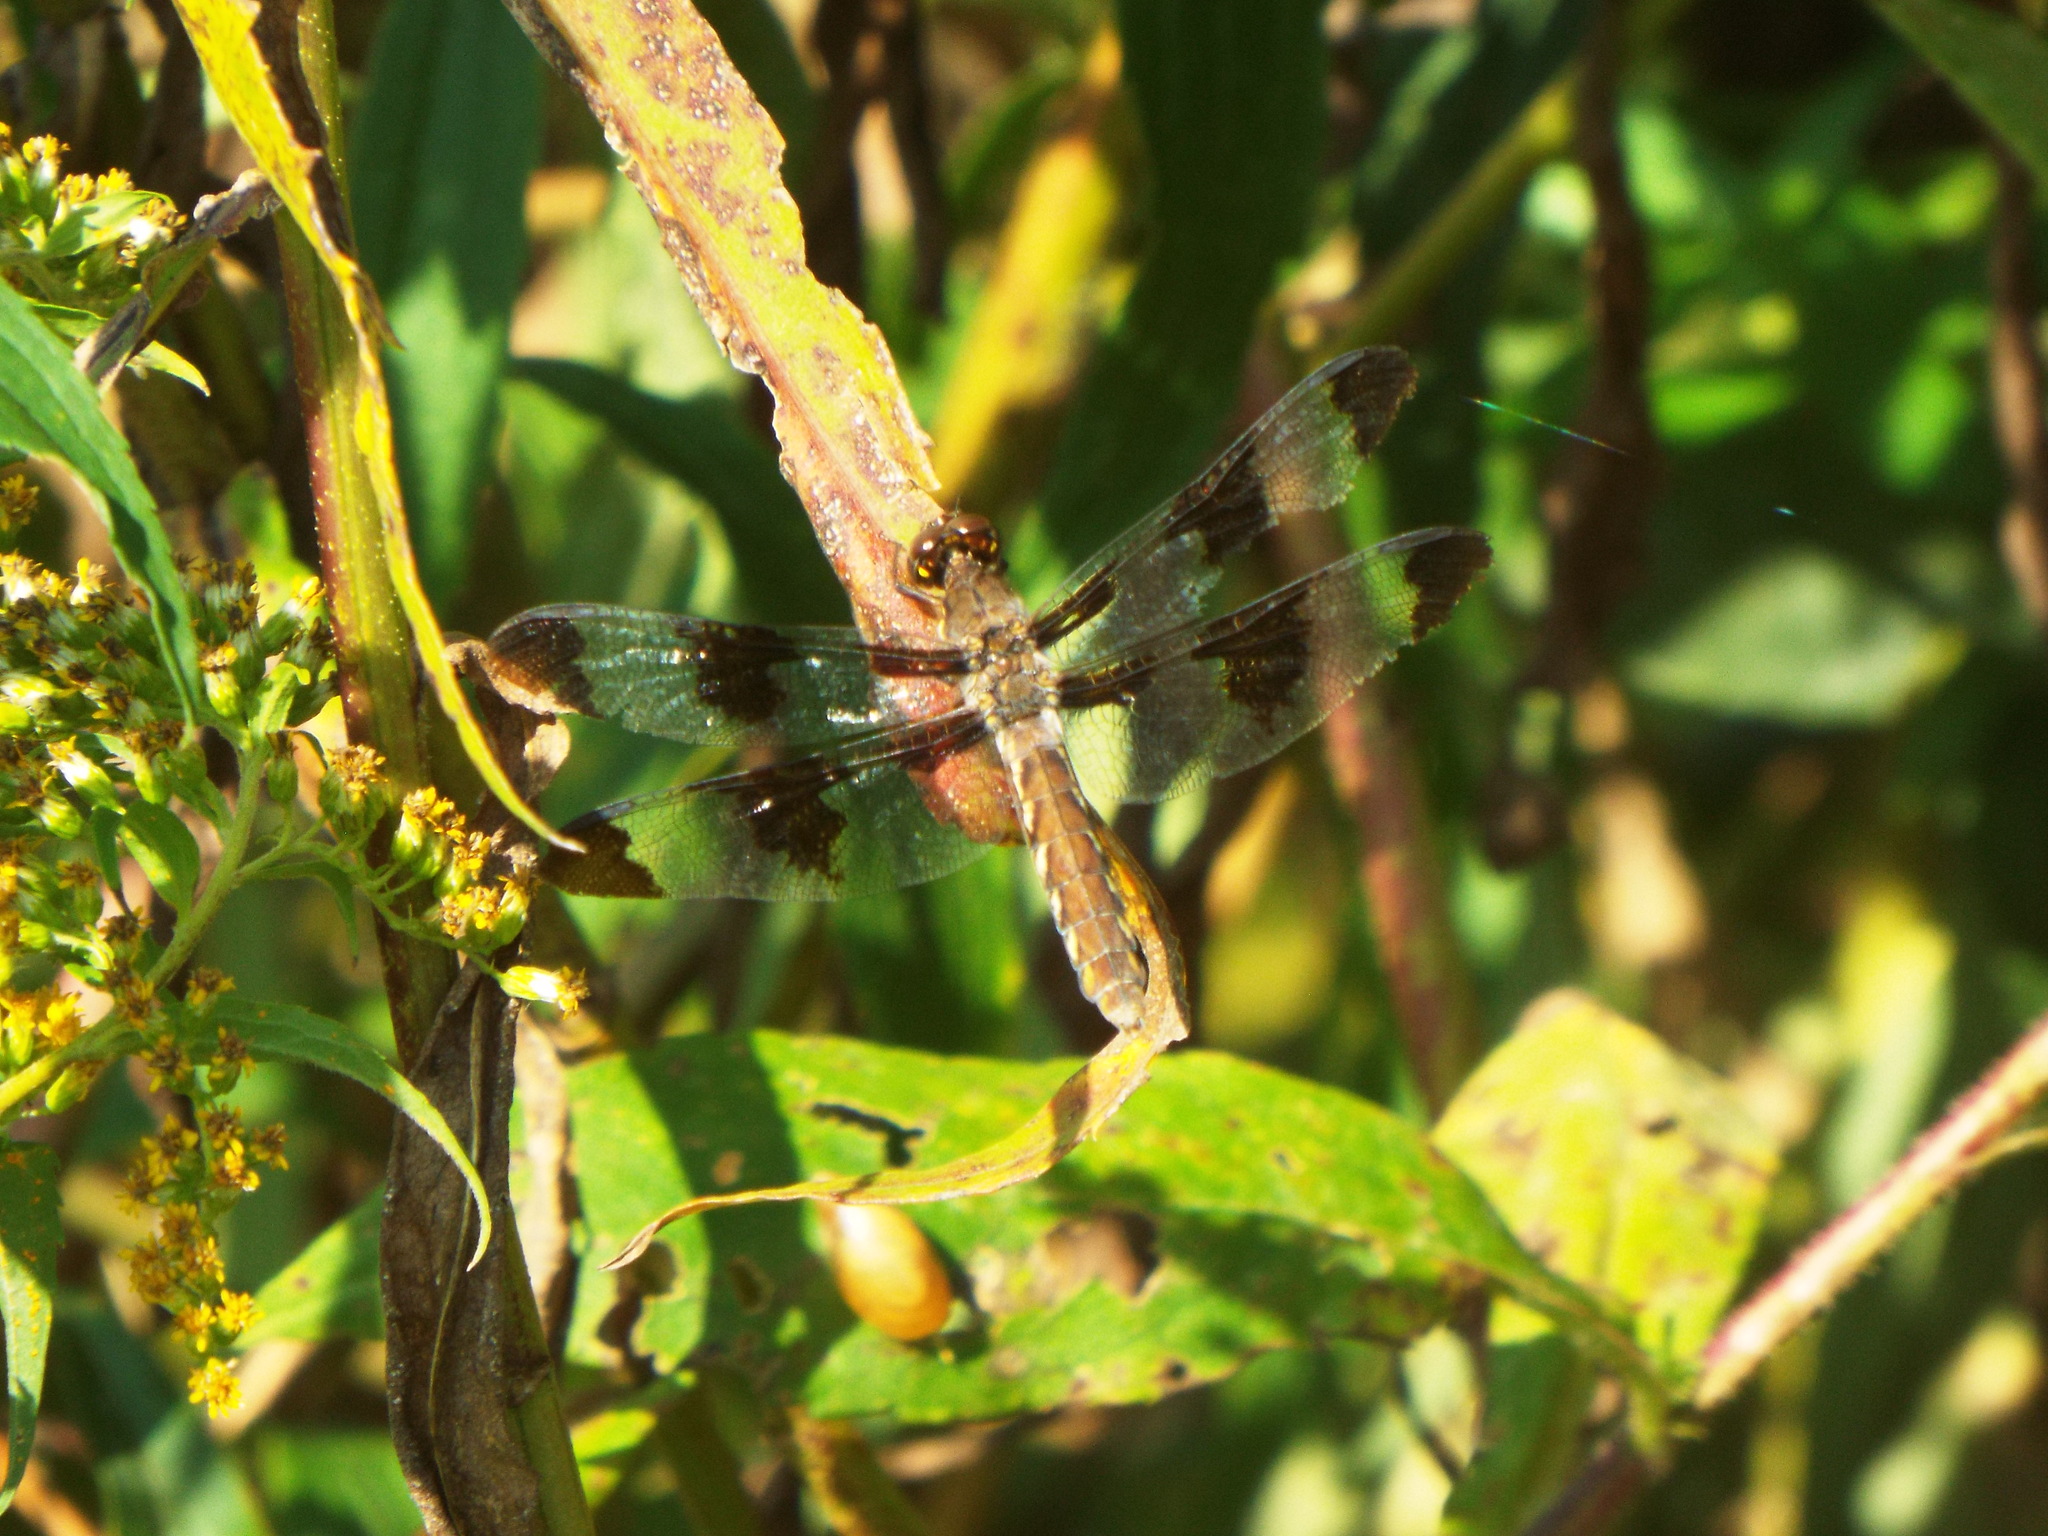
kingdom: Animalia
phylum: Arthropoda
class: Insecta
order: Odonata
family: Libellulidae
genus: Plathemis
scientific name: Plathemis lydia
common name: Common whitetail
